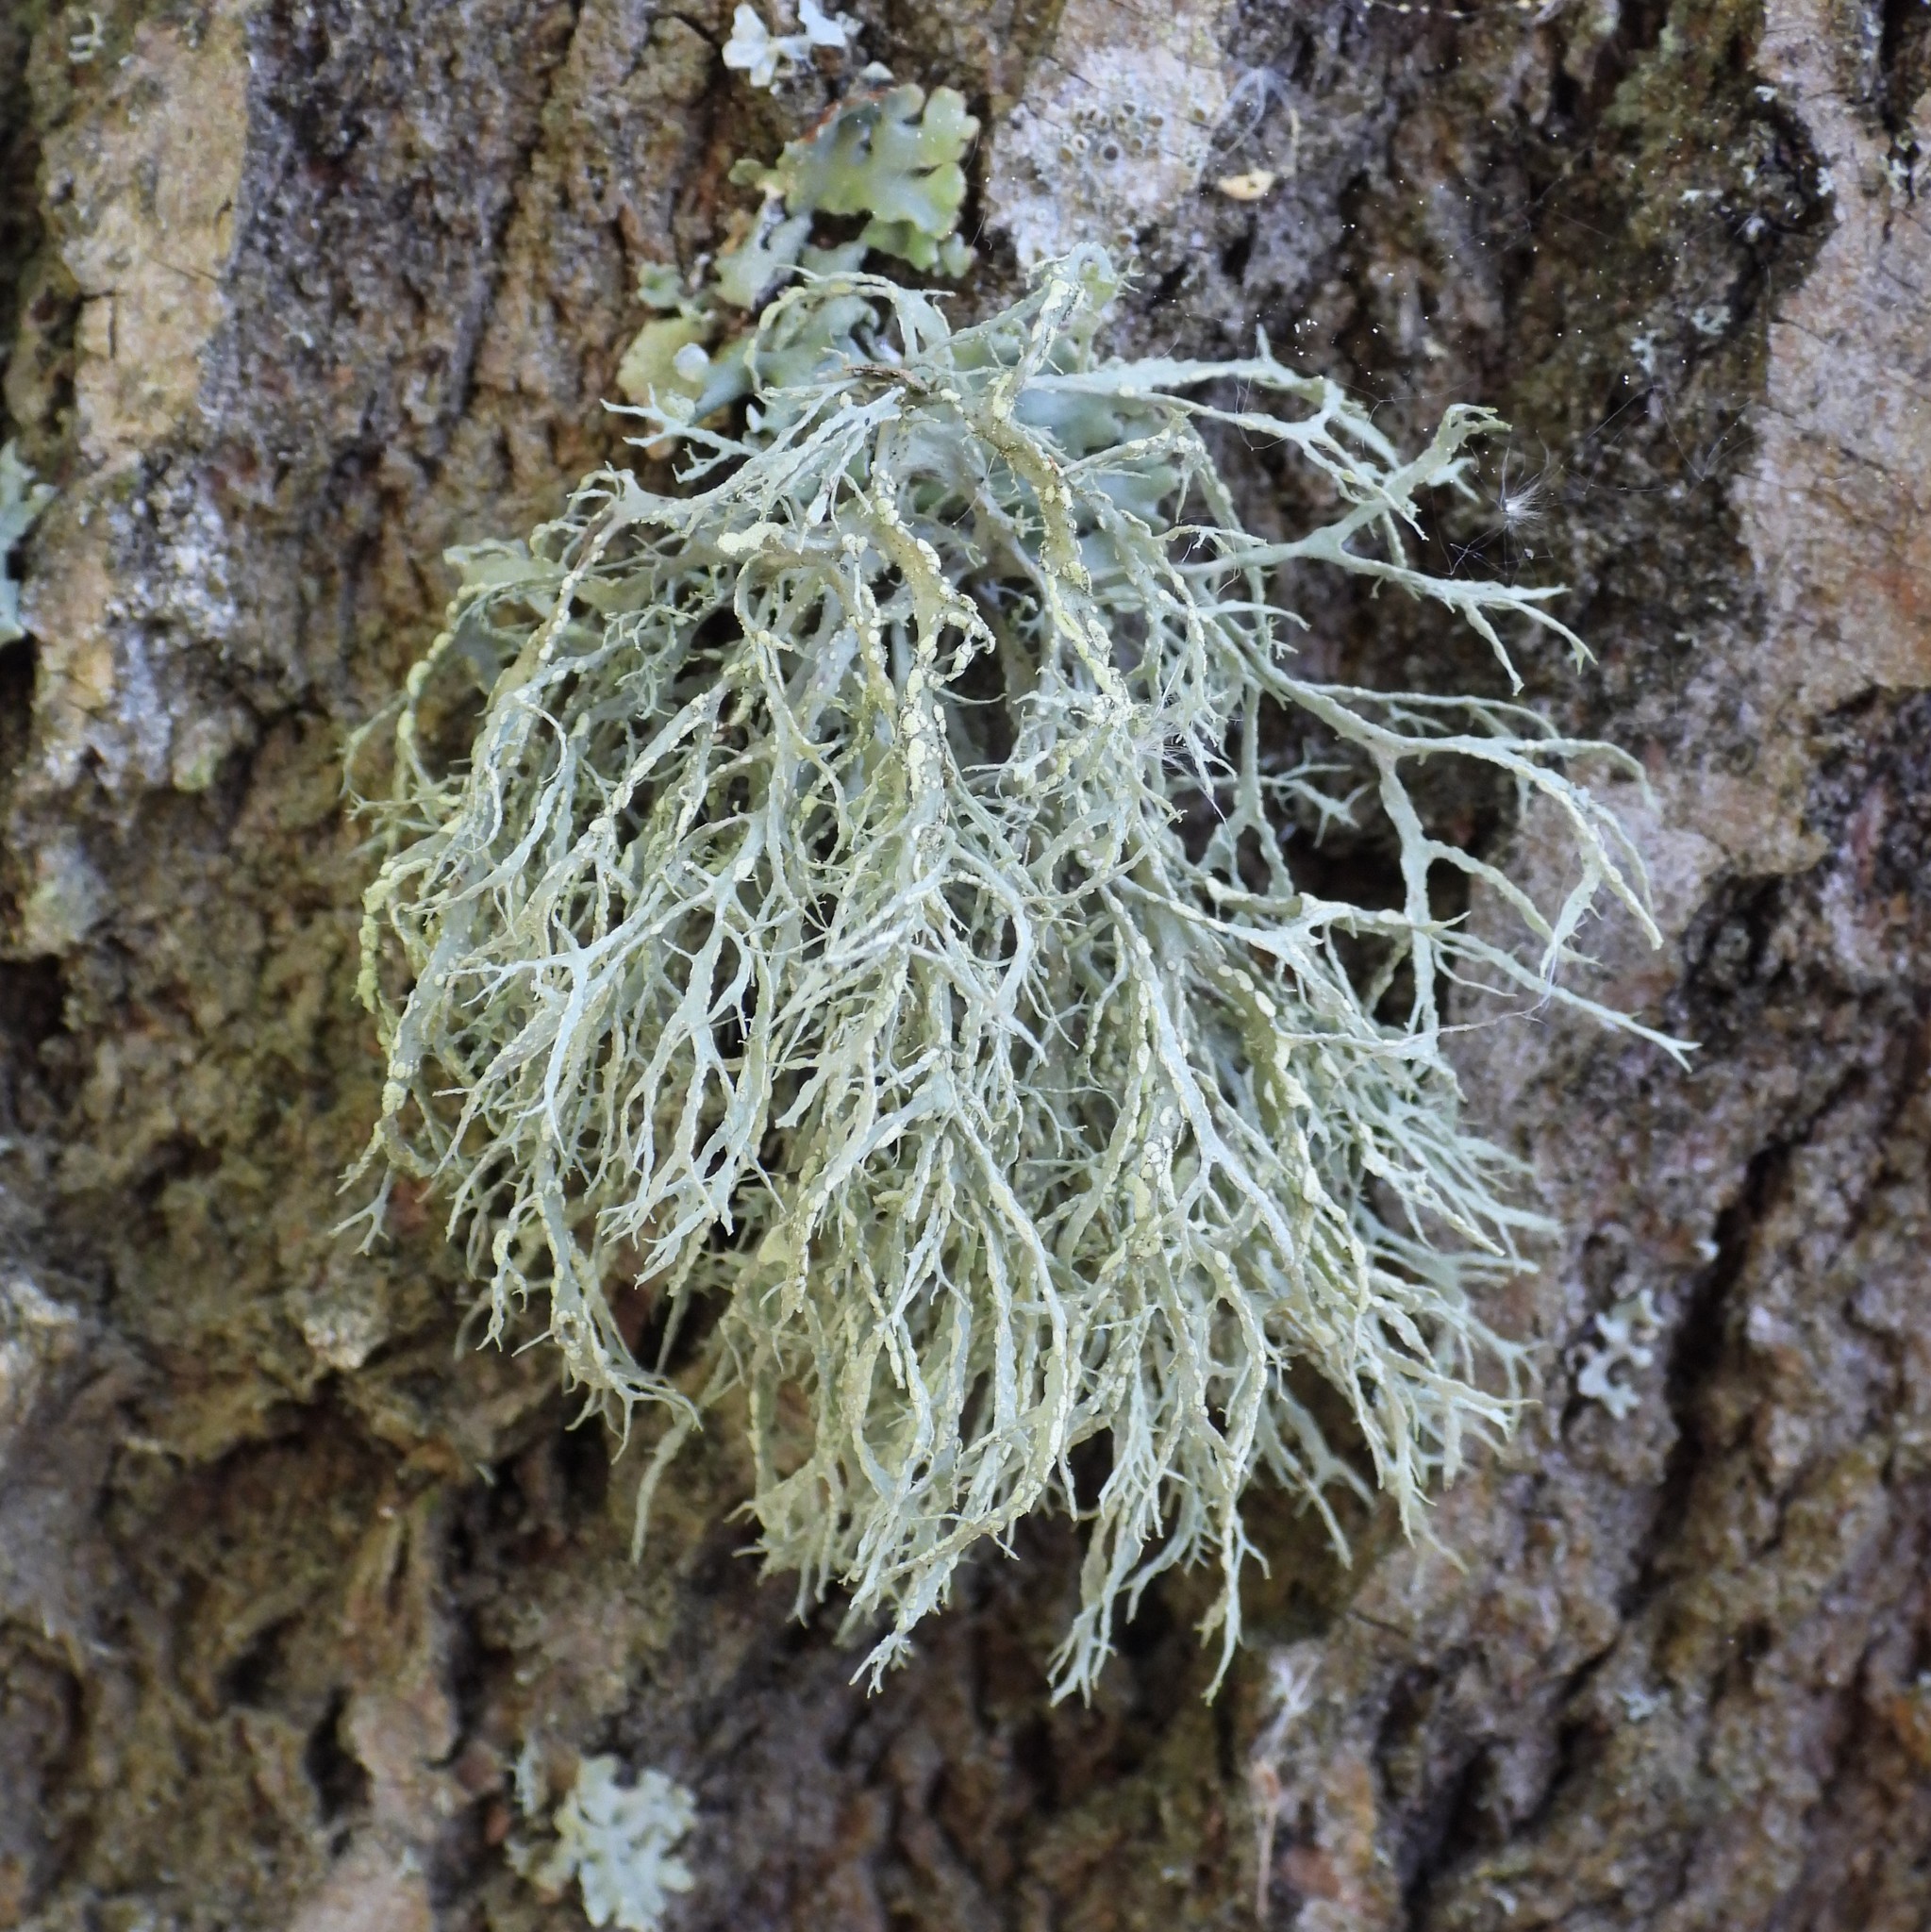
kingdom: Fungi
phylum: Ascomycota
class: Lecanoromycetes
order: Lecanorales
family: Ramalinaceae
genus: Ramalina
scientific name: Ramalina farinacea
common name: Farinose cartilage lichen
